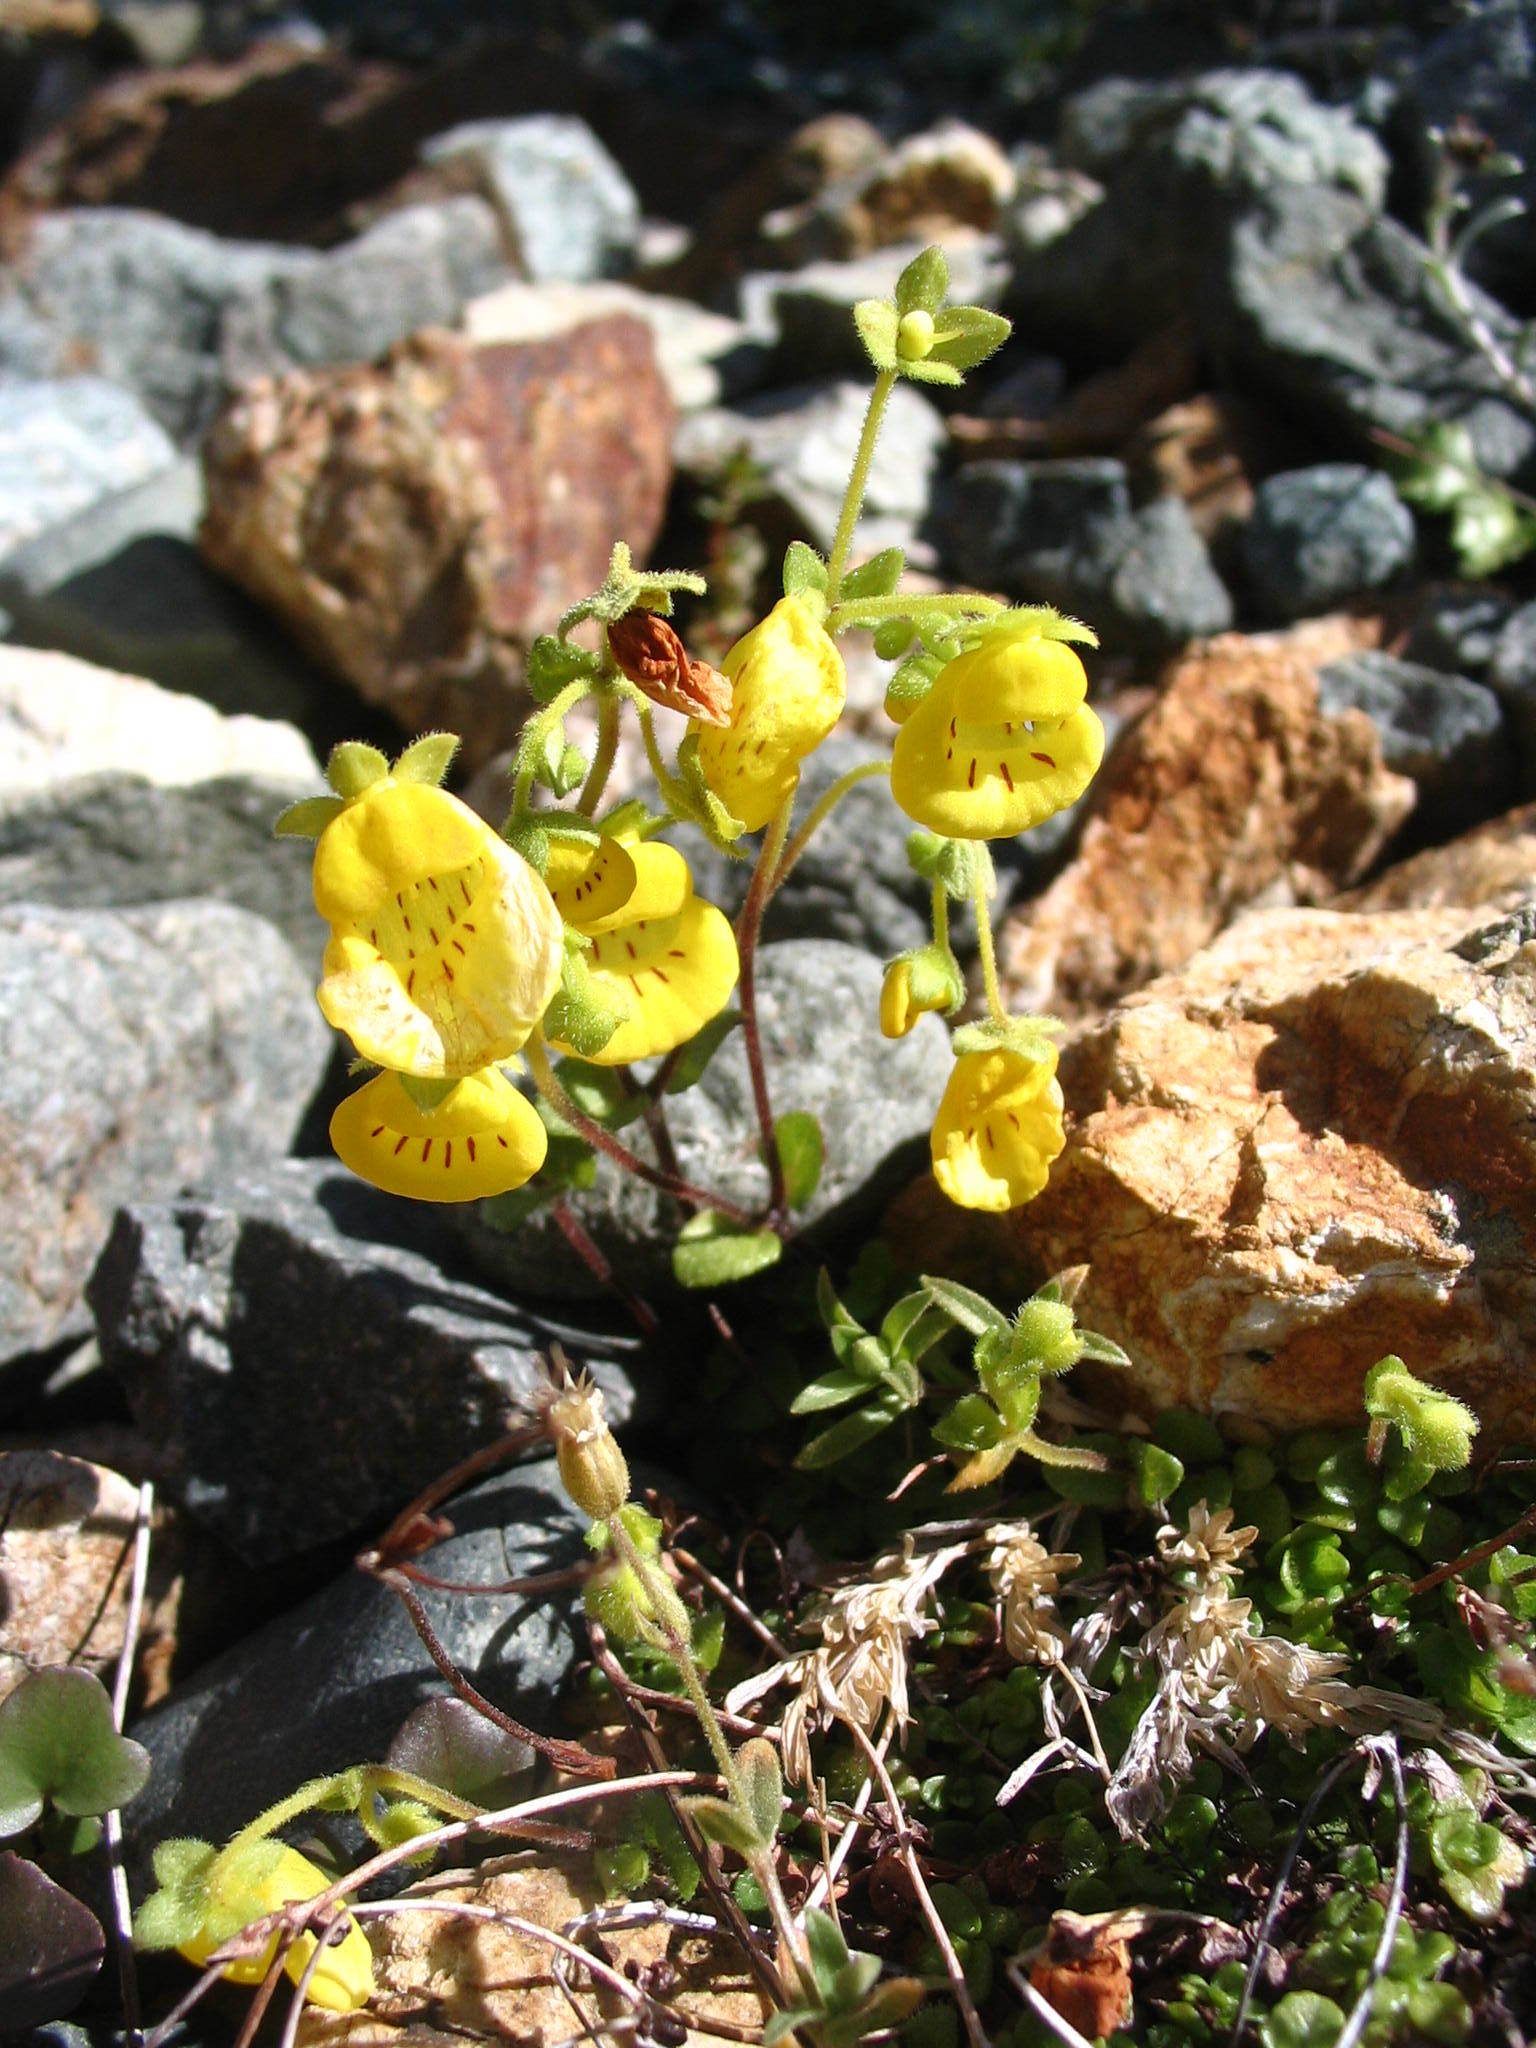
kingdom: Plantae
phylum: Tracheophyta
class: Magnoliopsida
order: Lamiales
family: Calceolariaceae
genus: Calceolaria
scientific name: Calceolaria tenella
